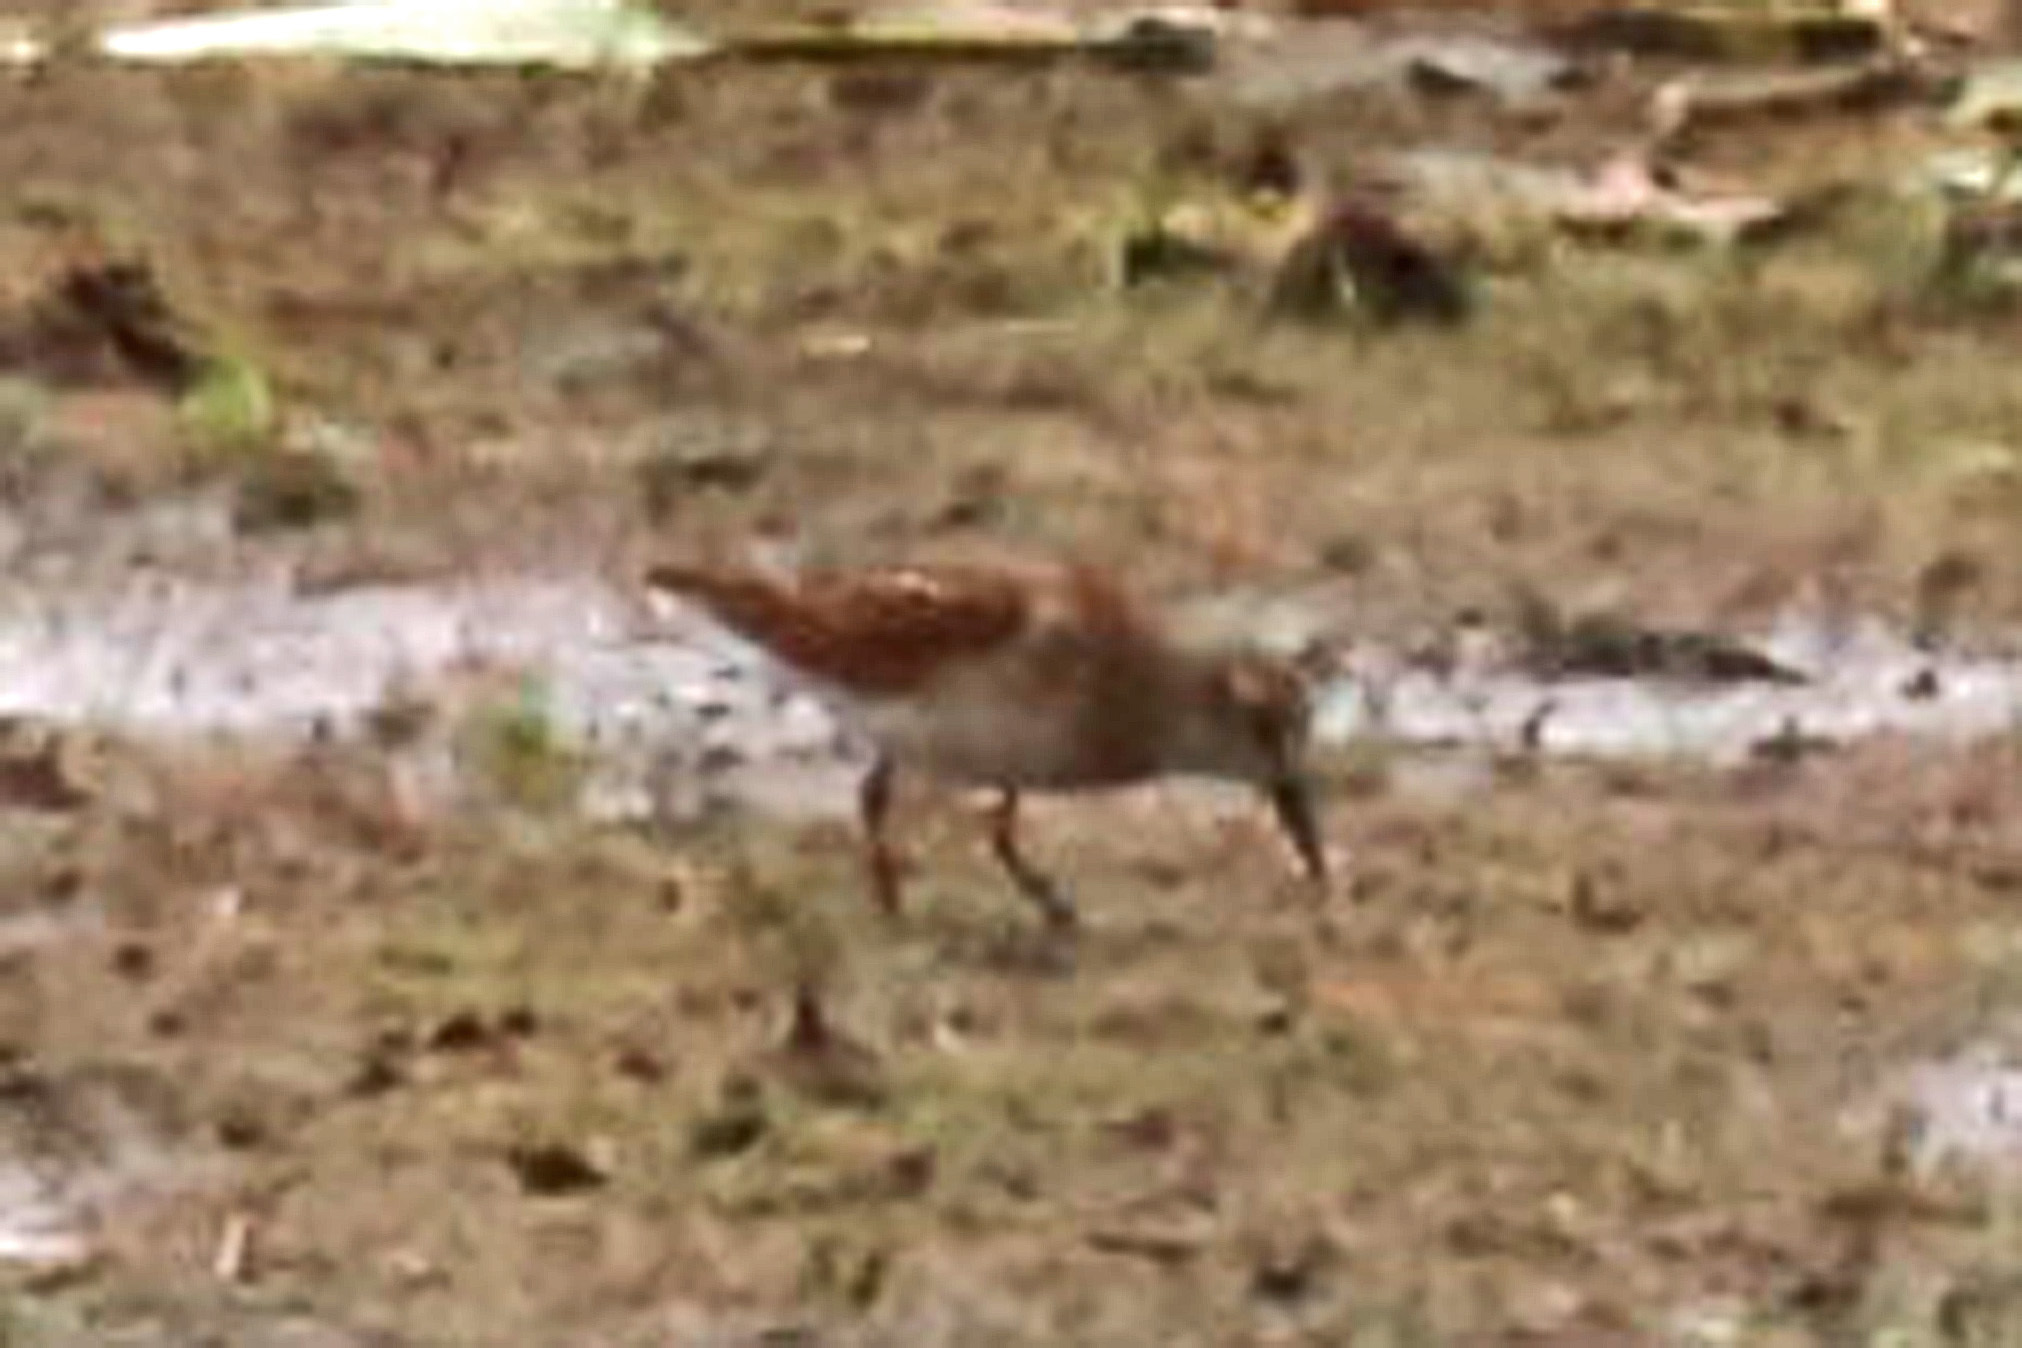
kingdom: Animalia
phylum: Chordata
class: Aves
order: Charadriiformes
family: Scolopacidae
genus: Calidris
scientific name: Calidris minutilla
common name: Least sandpiper
